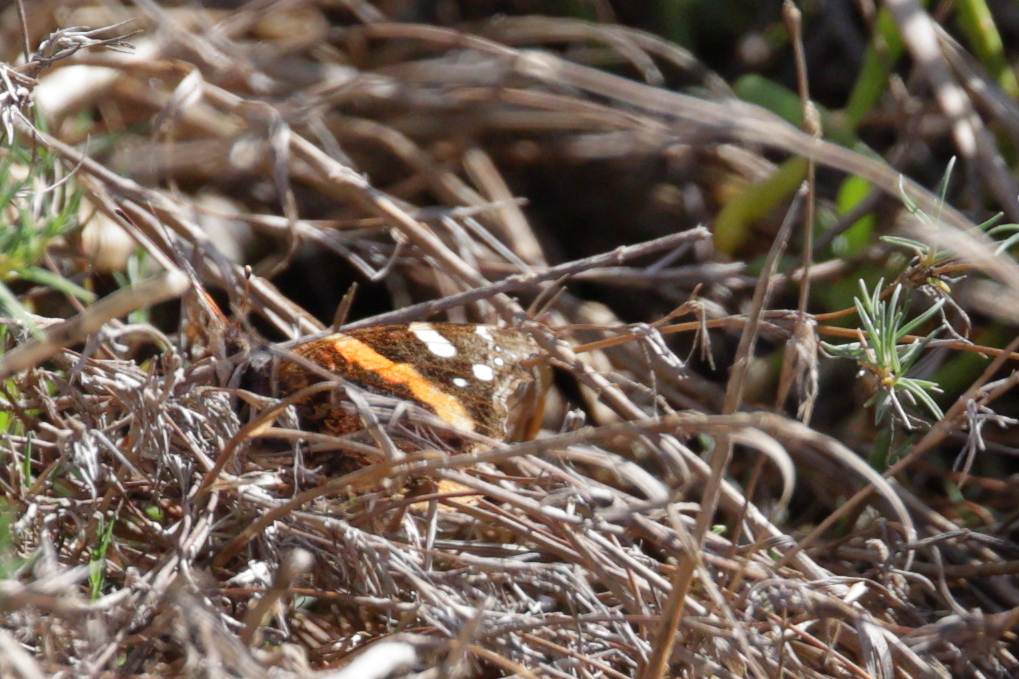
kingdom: Animalia
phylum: Arthropoda
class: Insecta
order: Lepidoptera
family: Nymphalidae
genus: Vanessa
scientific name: Vanessa atalanta
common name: Red admiral
